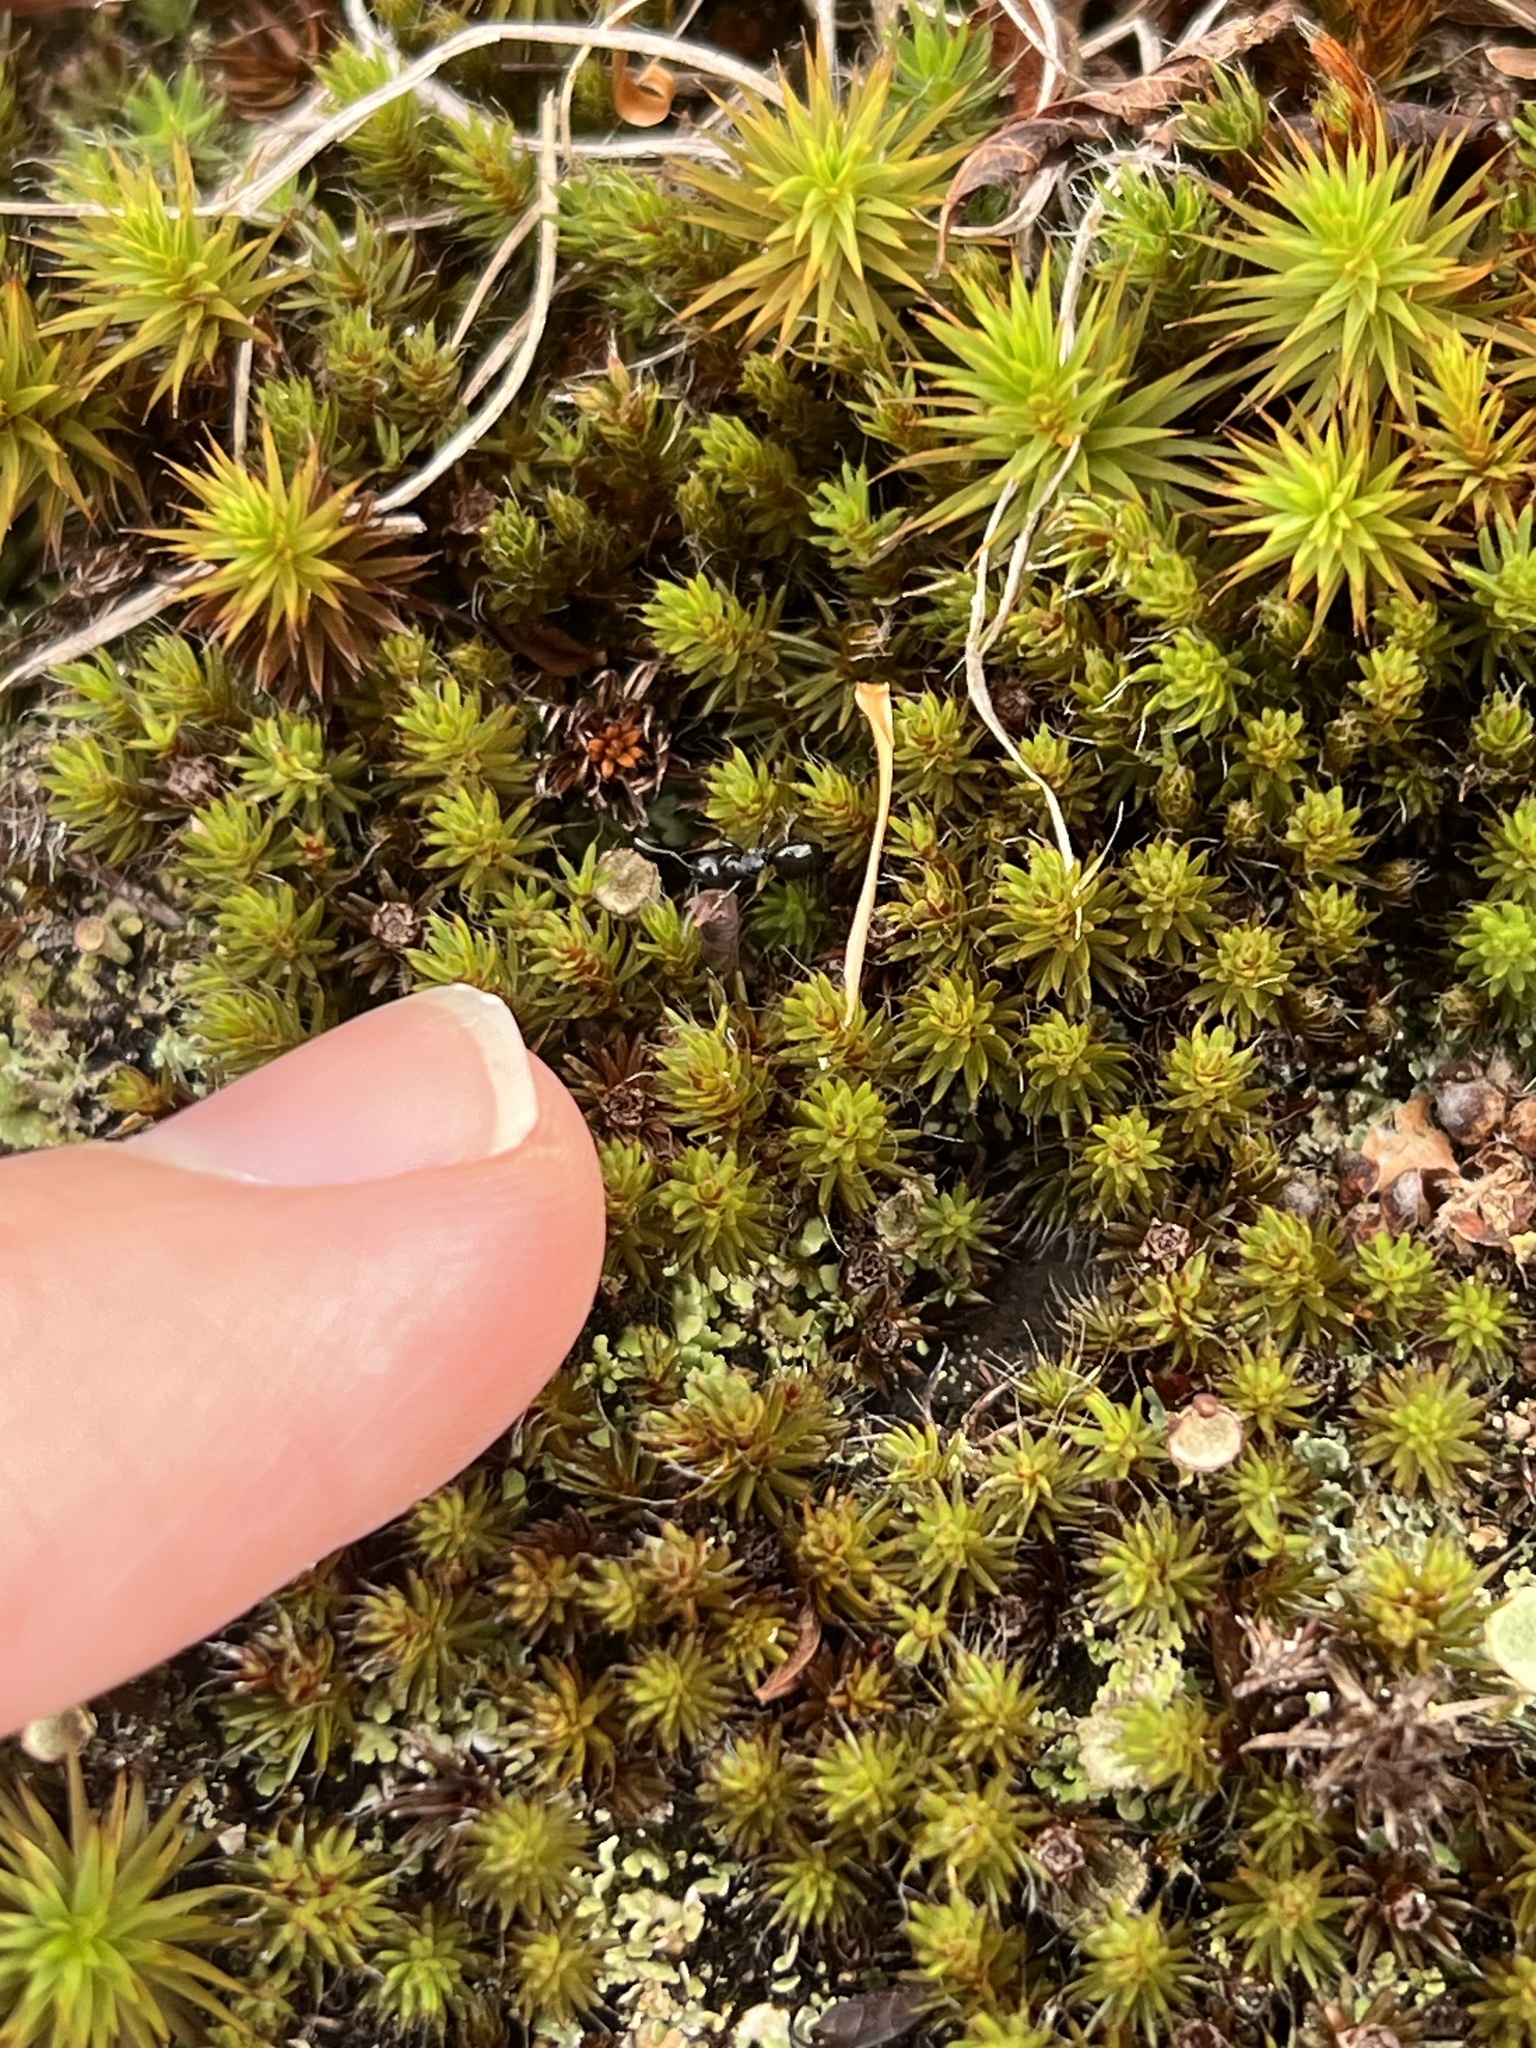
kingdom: Animalia
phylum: Arthropoda
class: Insecta
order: Hymenoptera
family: Formicidae
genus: Dolichoderus
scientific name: Dolichoderus taschenbergi
